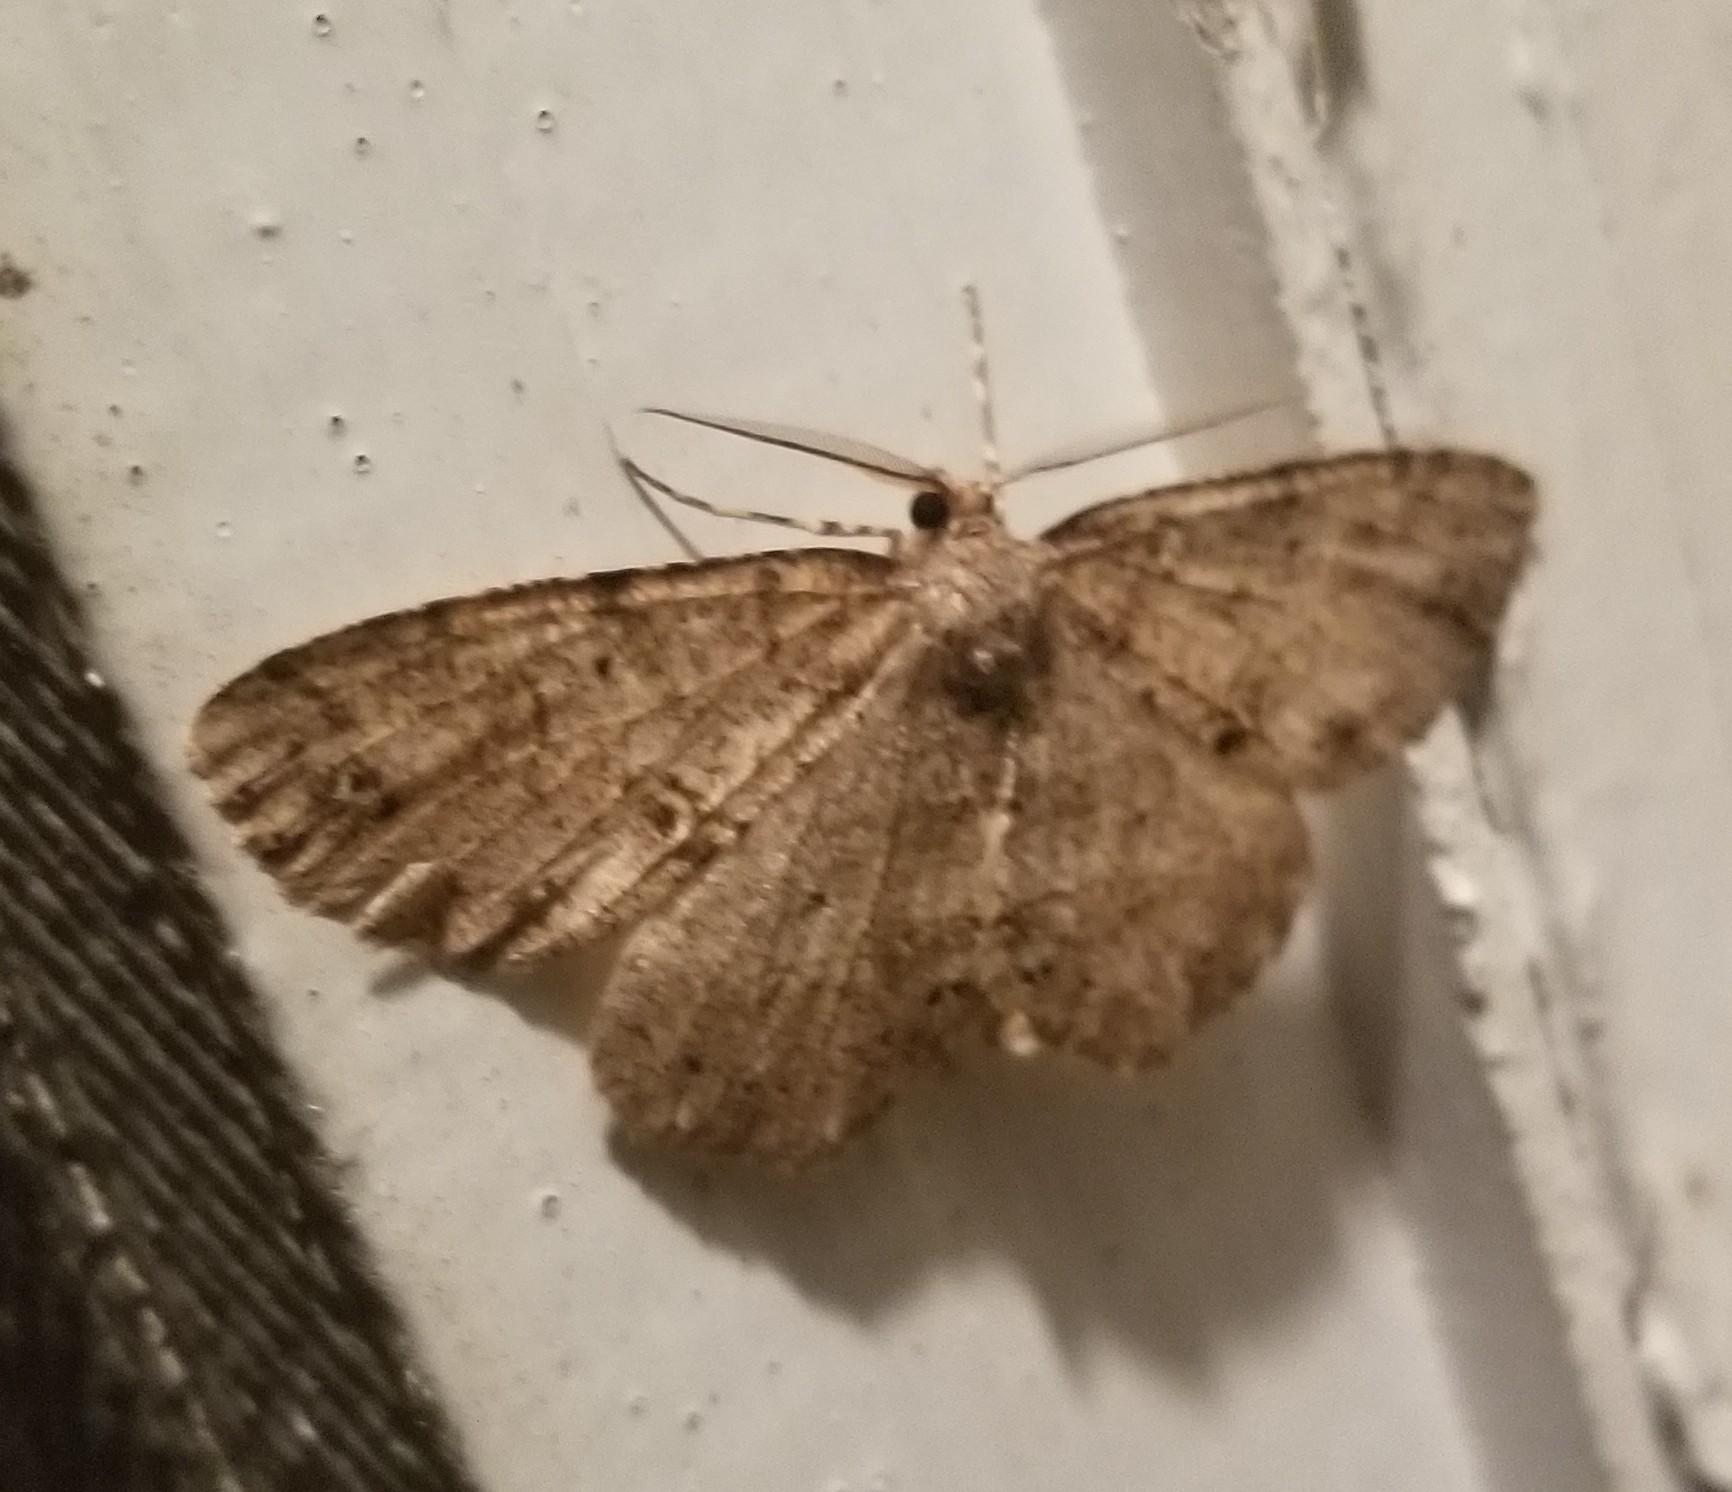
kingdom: Animalia
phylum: Arthropoda
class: Insecta
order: Lepidoptera
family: Geometridae
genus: Melanolophia
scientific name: Melanolophia signataria
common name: Signate melanolophia
